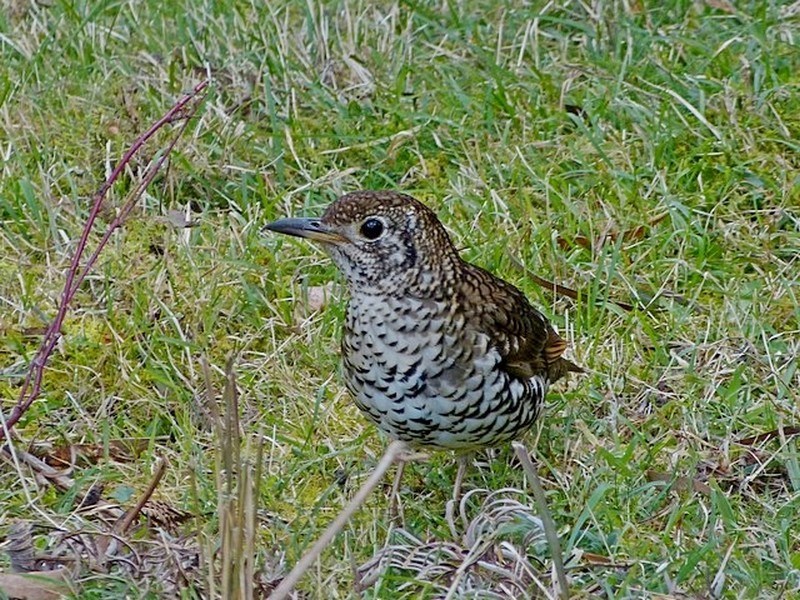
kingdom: Animalia
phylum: Chordata
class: Aves
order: Passeriformes
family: Turdidae
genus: Zoothera
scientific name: Zoothera lunulata
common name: Bassian thrush
